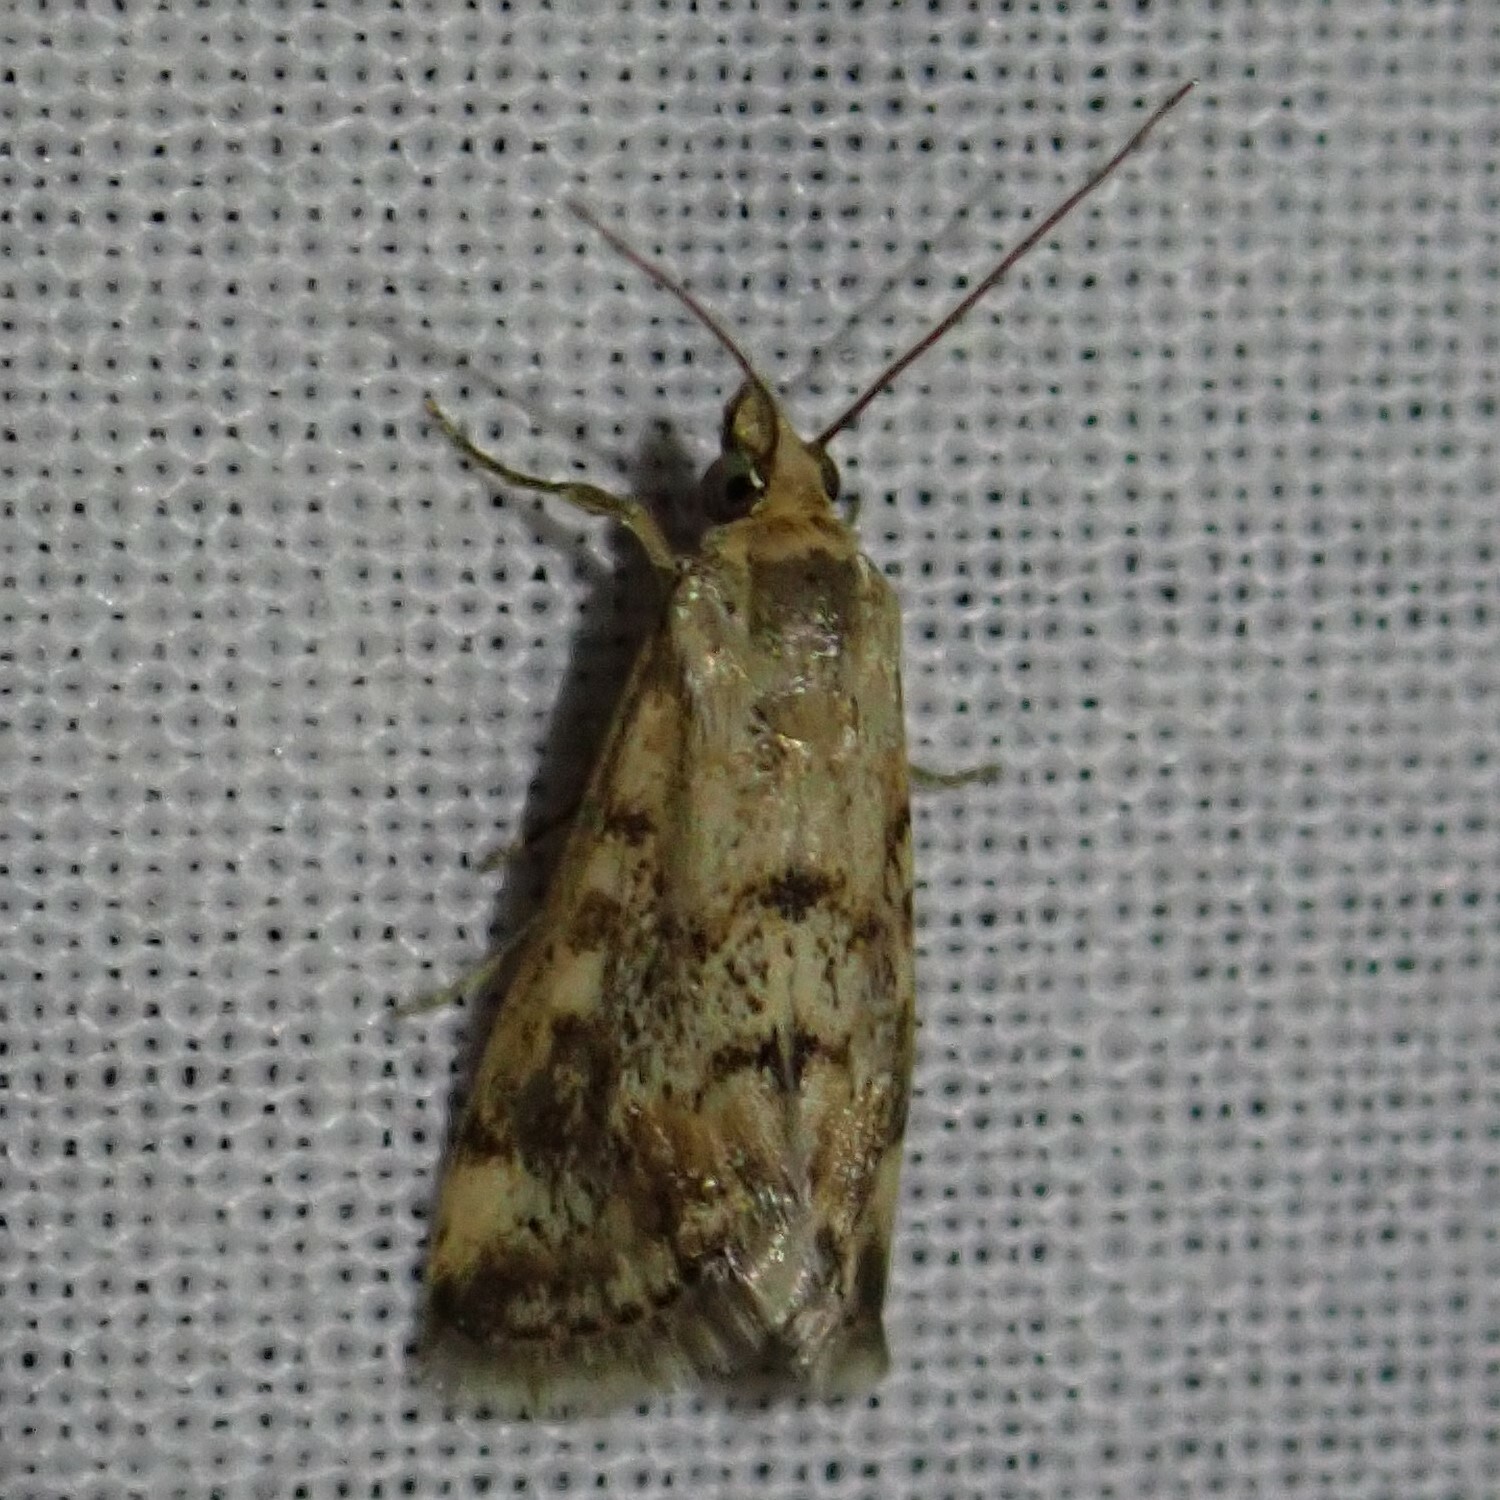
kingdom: Animalia
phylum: Arthropoda
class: Insecta
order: Lepidoptera
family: Crambidae
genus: Tegostoma
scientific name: Tegostoma comparalis
